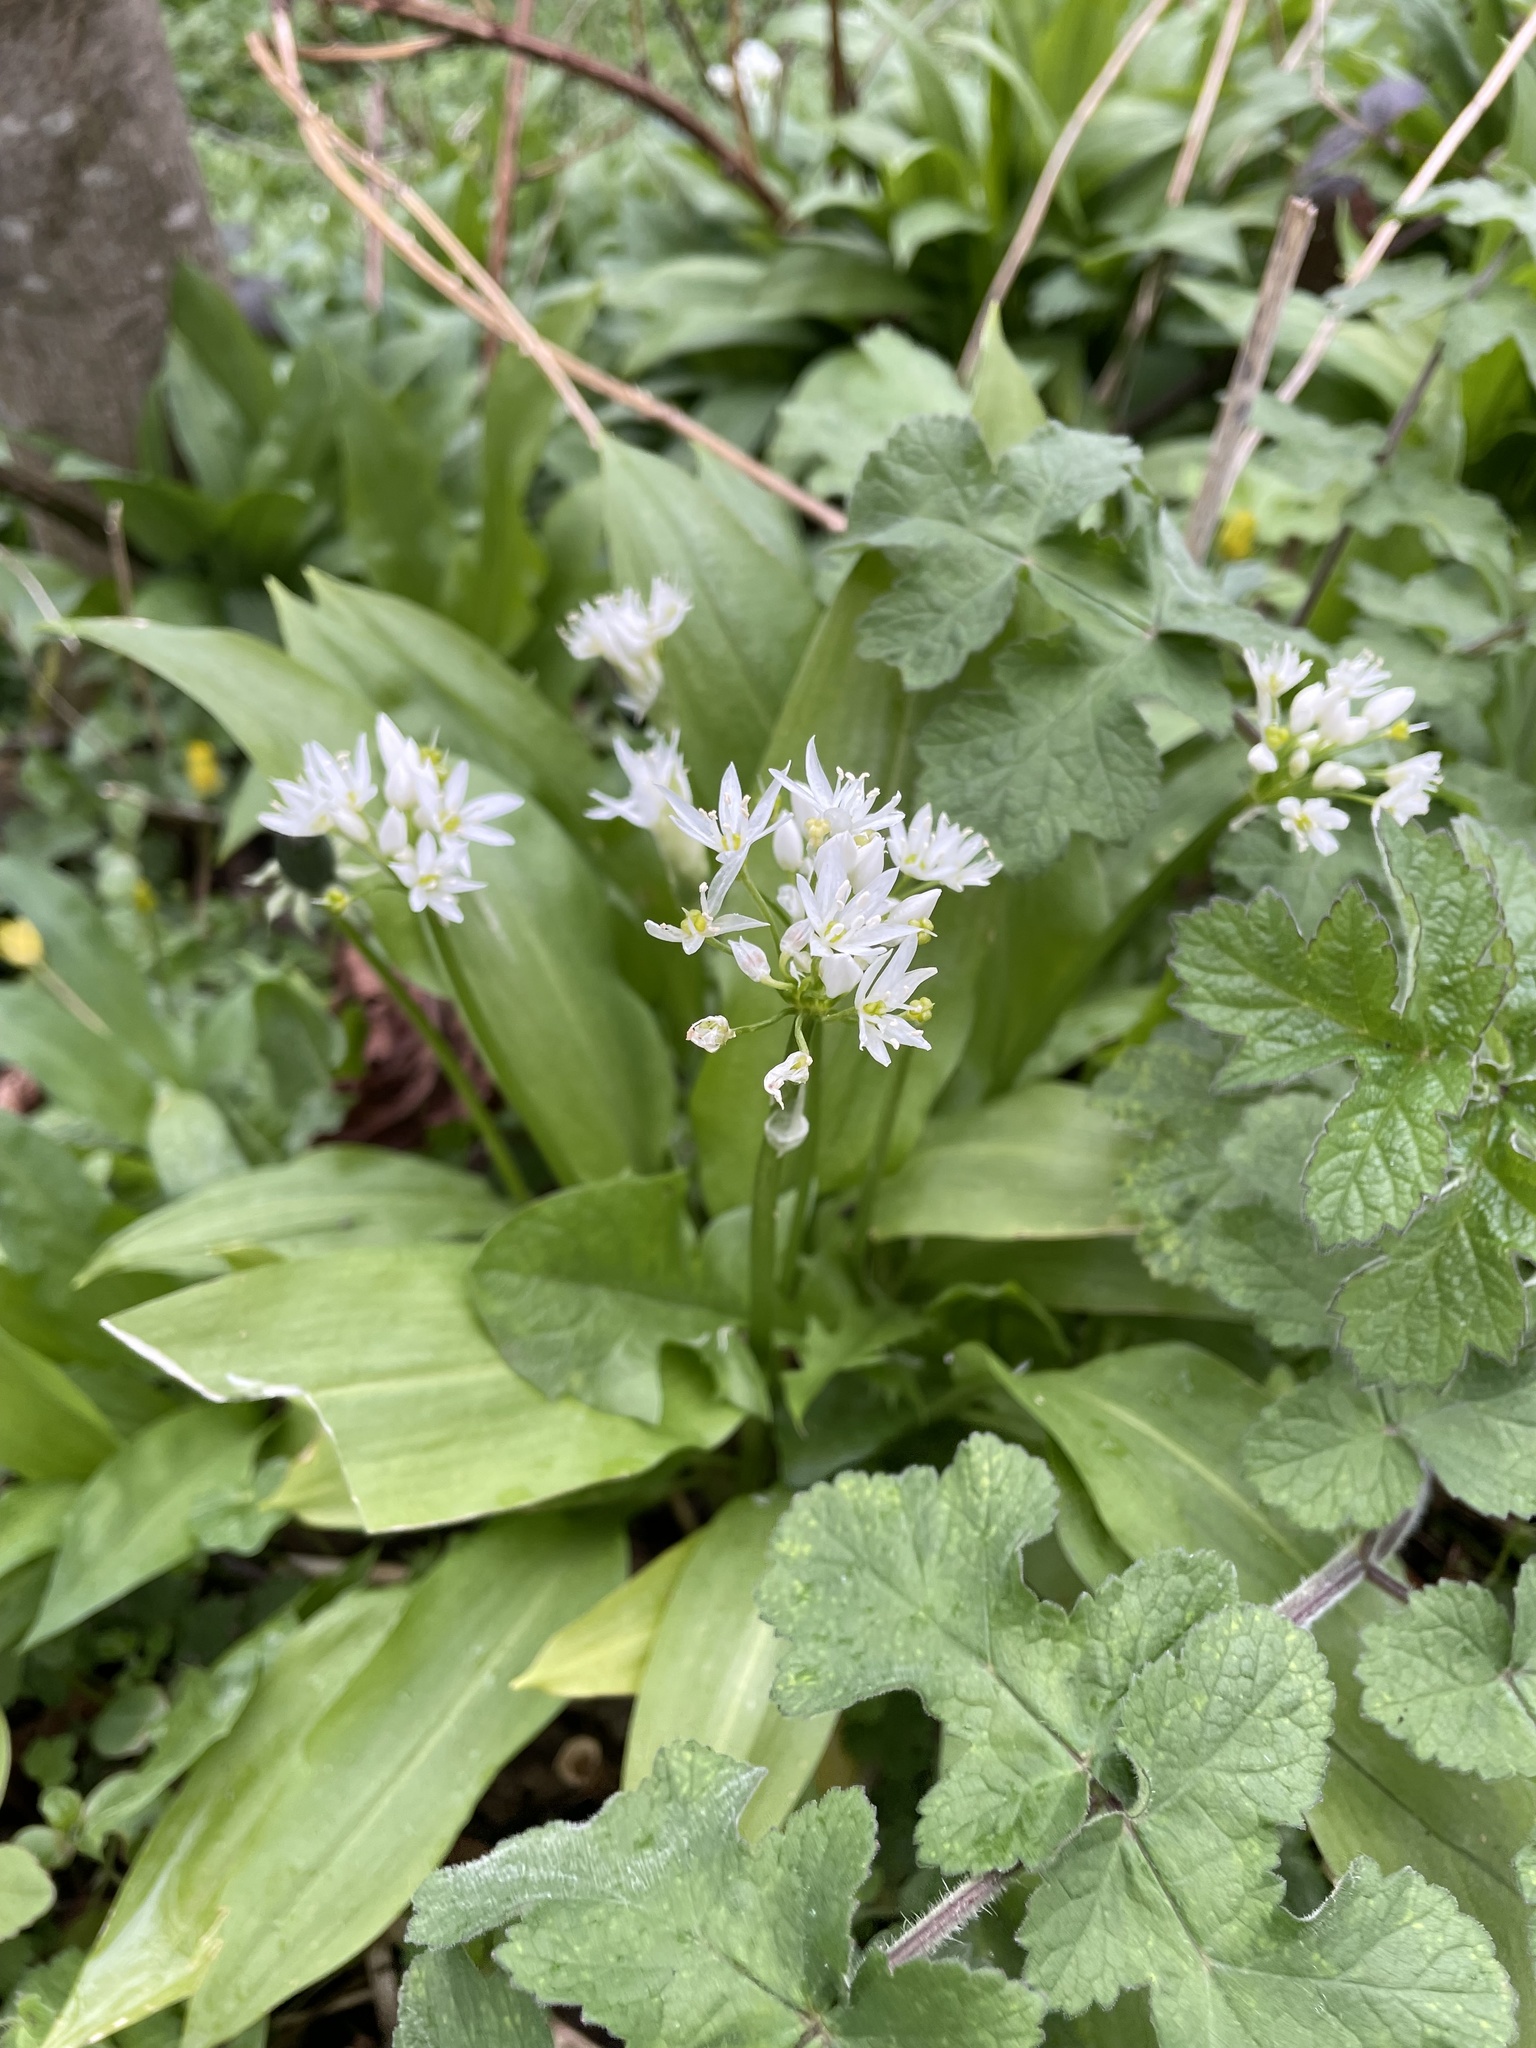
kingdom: Plantae
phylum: Tracheophyta
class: Liliopsida
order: Asparagales
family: Amaryllidaceae
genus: Allium
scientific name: Allium ursinum
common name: Ramsons
